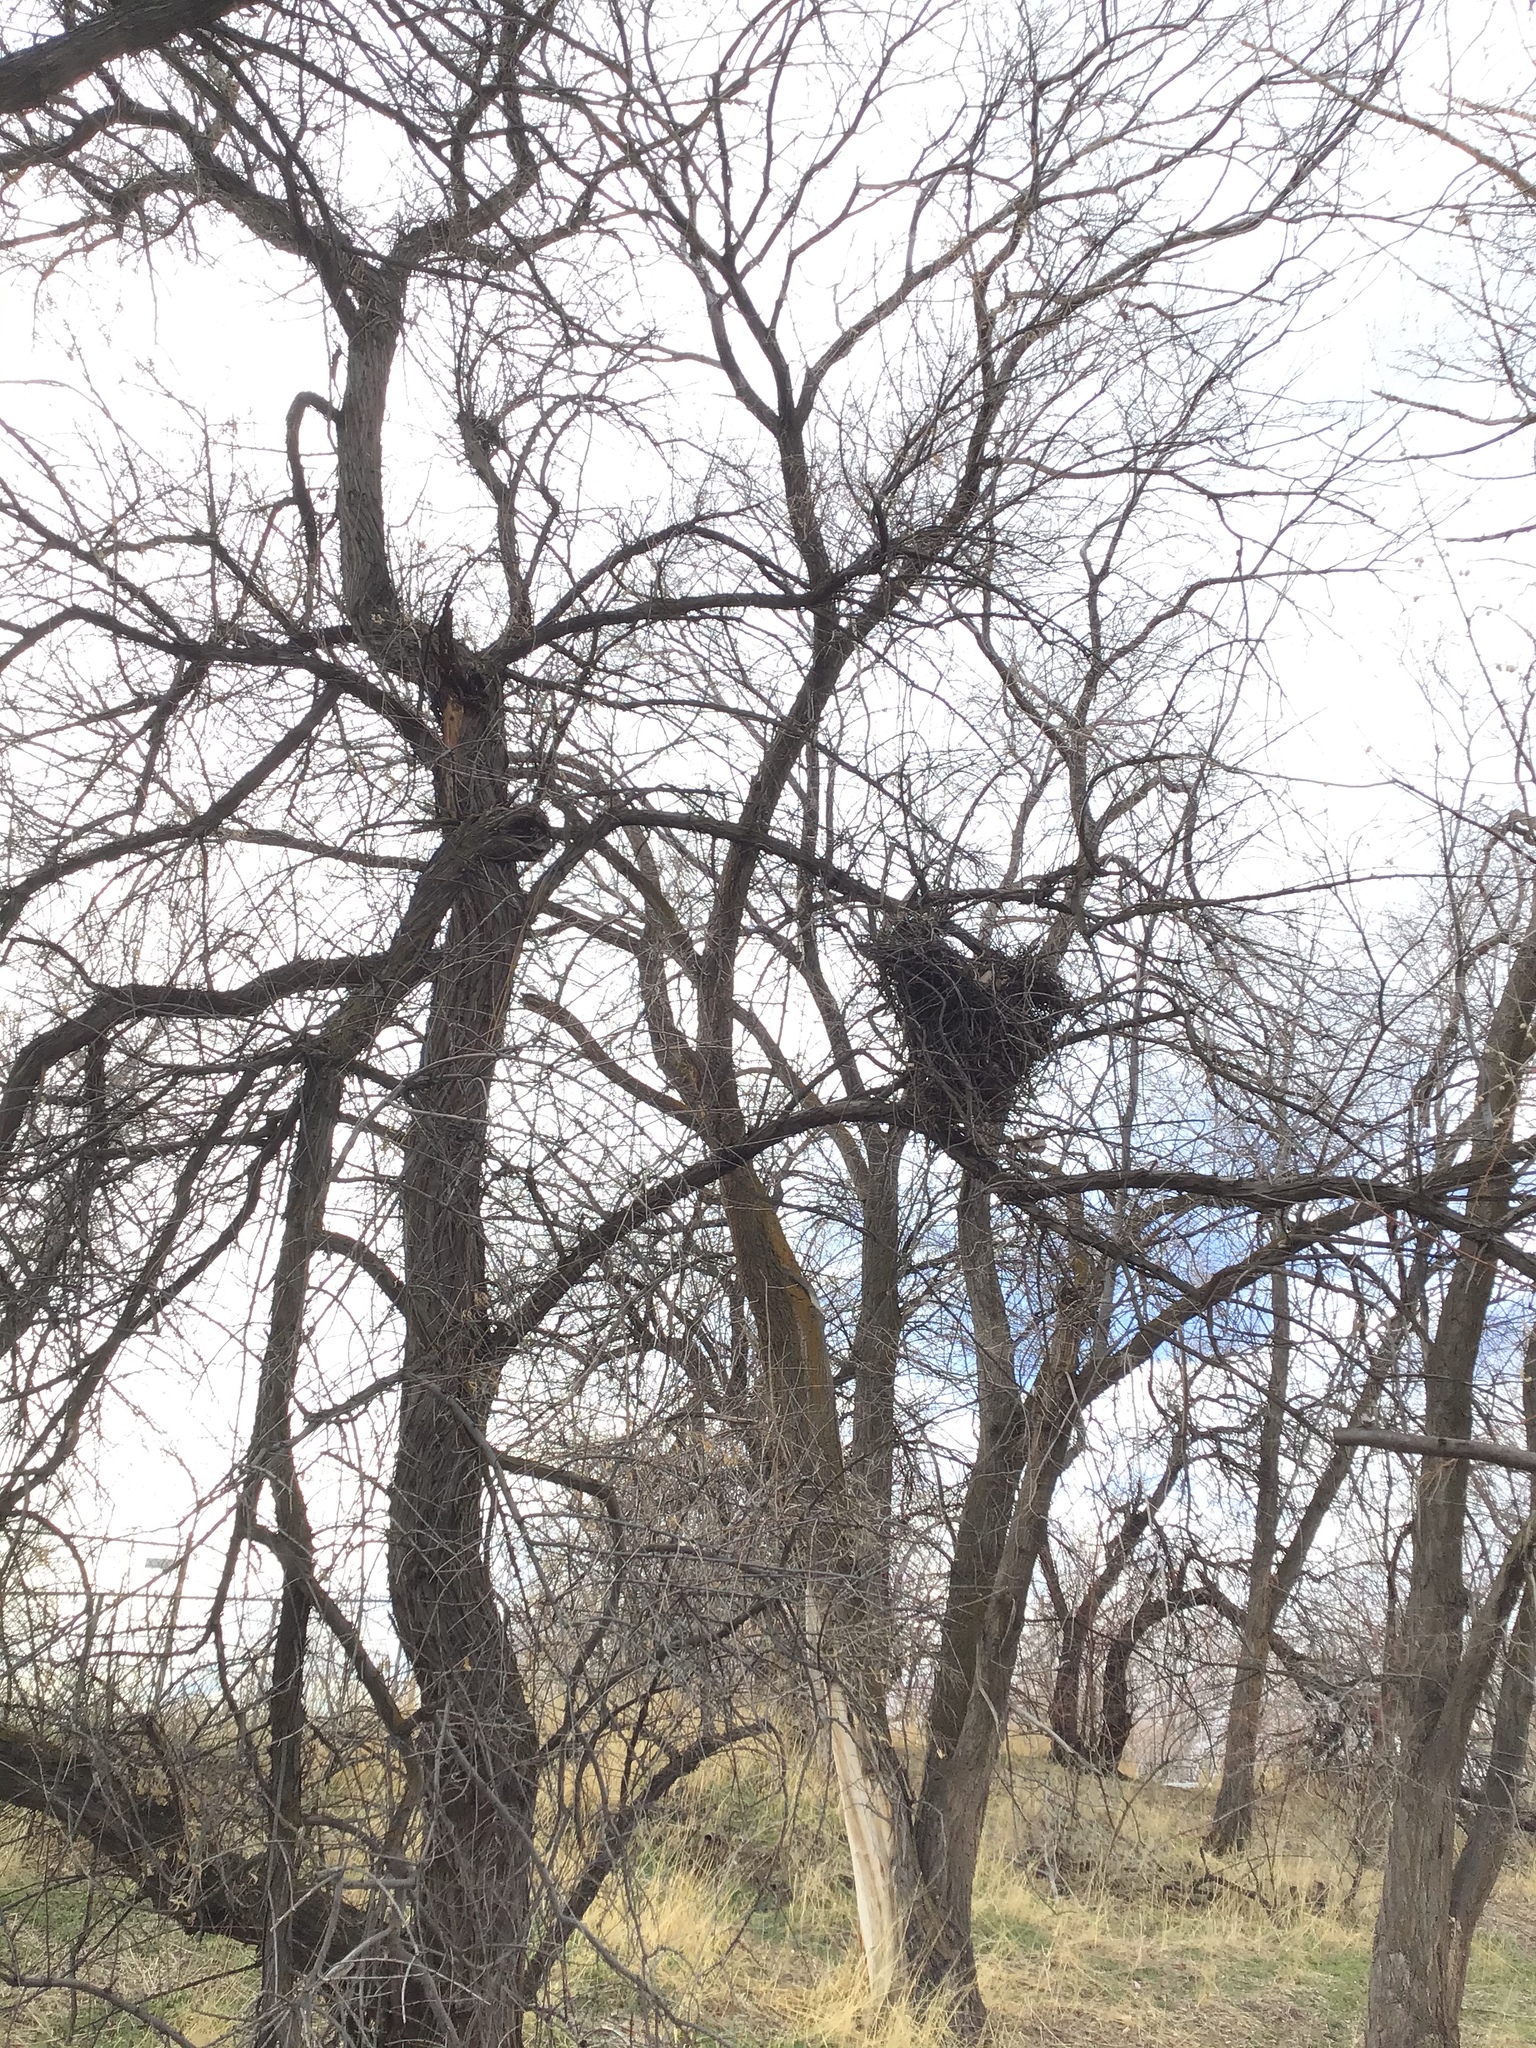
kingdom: Animalia
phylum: Chordata
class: Aves
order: Passeriformes
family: Corvidae
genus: Pica
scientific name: Pica hudsonia
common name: Black-billed magpie
